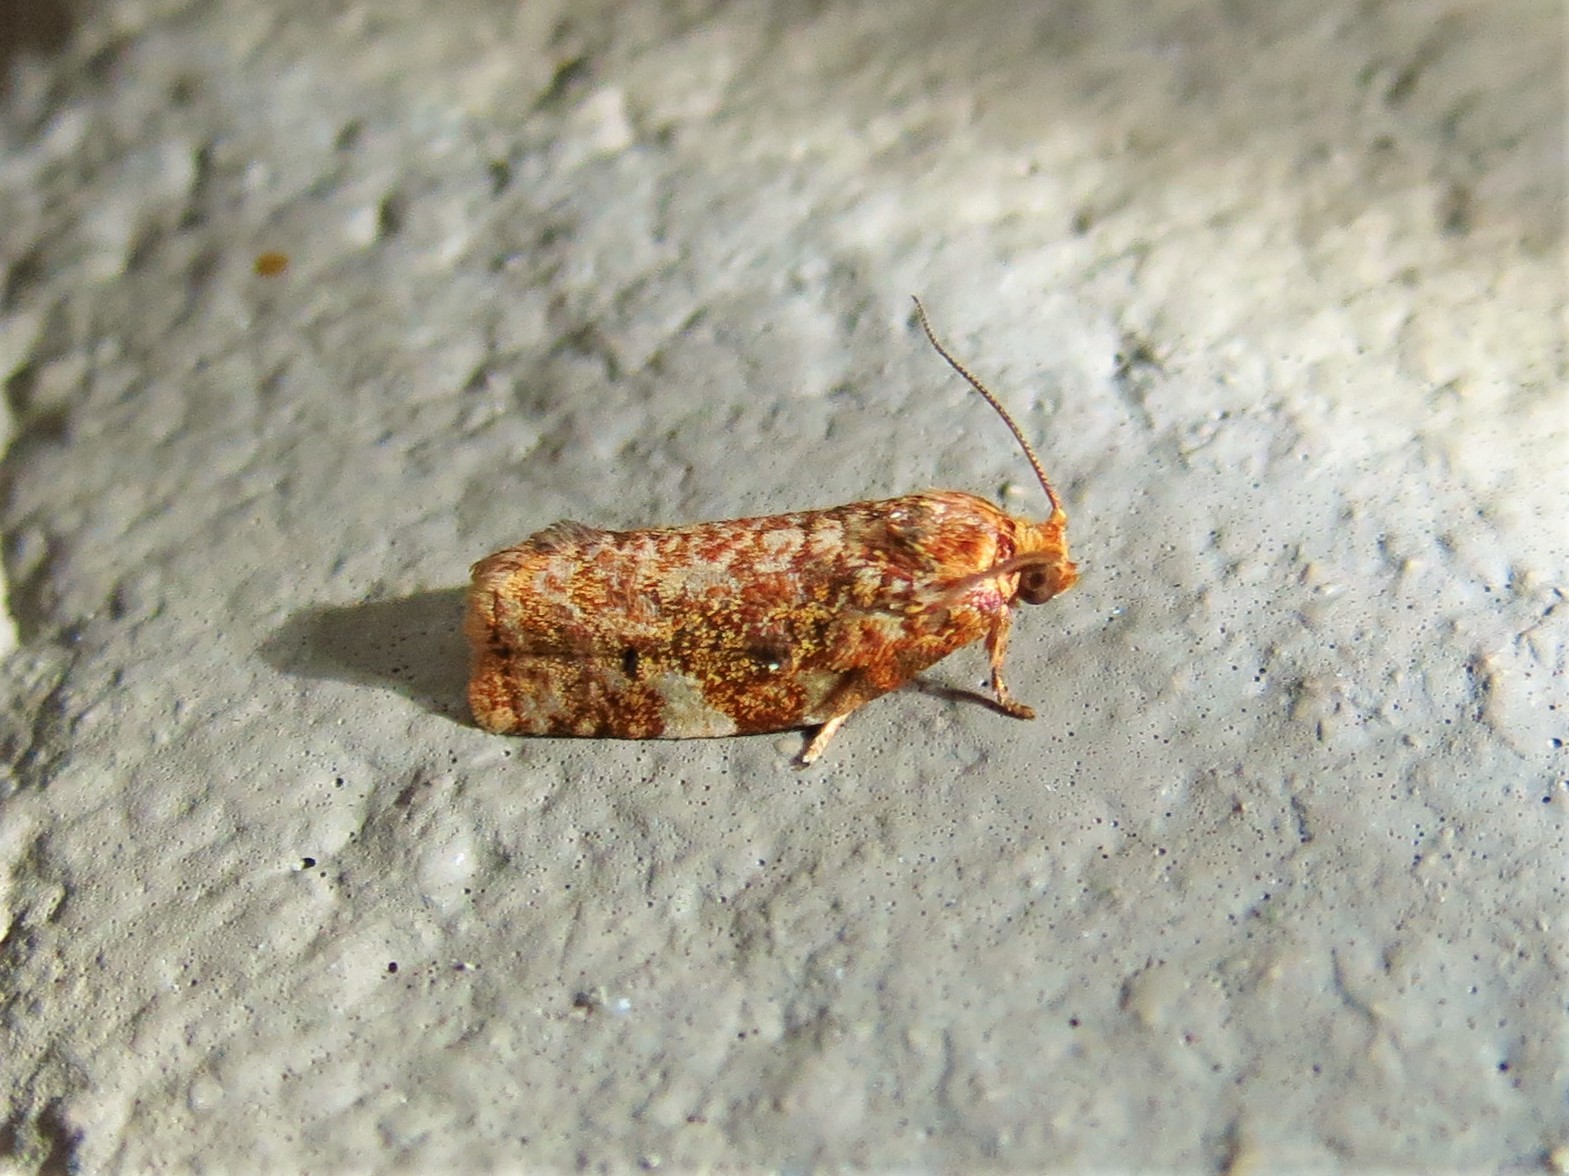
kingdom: Animalia
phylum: Arthropoda
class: Insecta
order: Lepidoptera
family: Tortricidae
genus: Archips
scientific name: Archips argyrospila
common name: Fruit-tree leafroller moth
